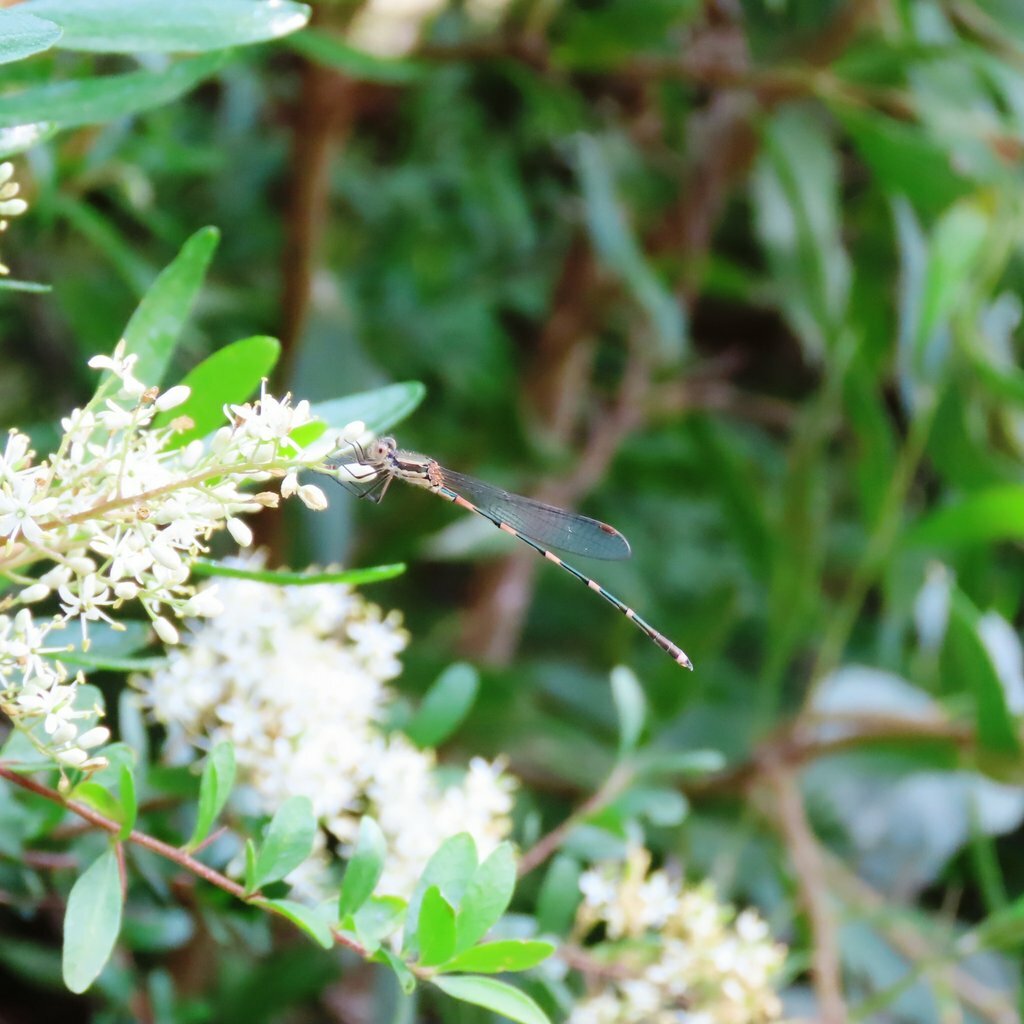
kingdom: Animalia
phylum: Arthropoda
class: Insecta
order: Odonata
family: Lestidae
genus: Austrolestes
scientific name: Austrolestes leda
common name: Wandering ringtail
